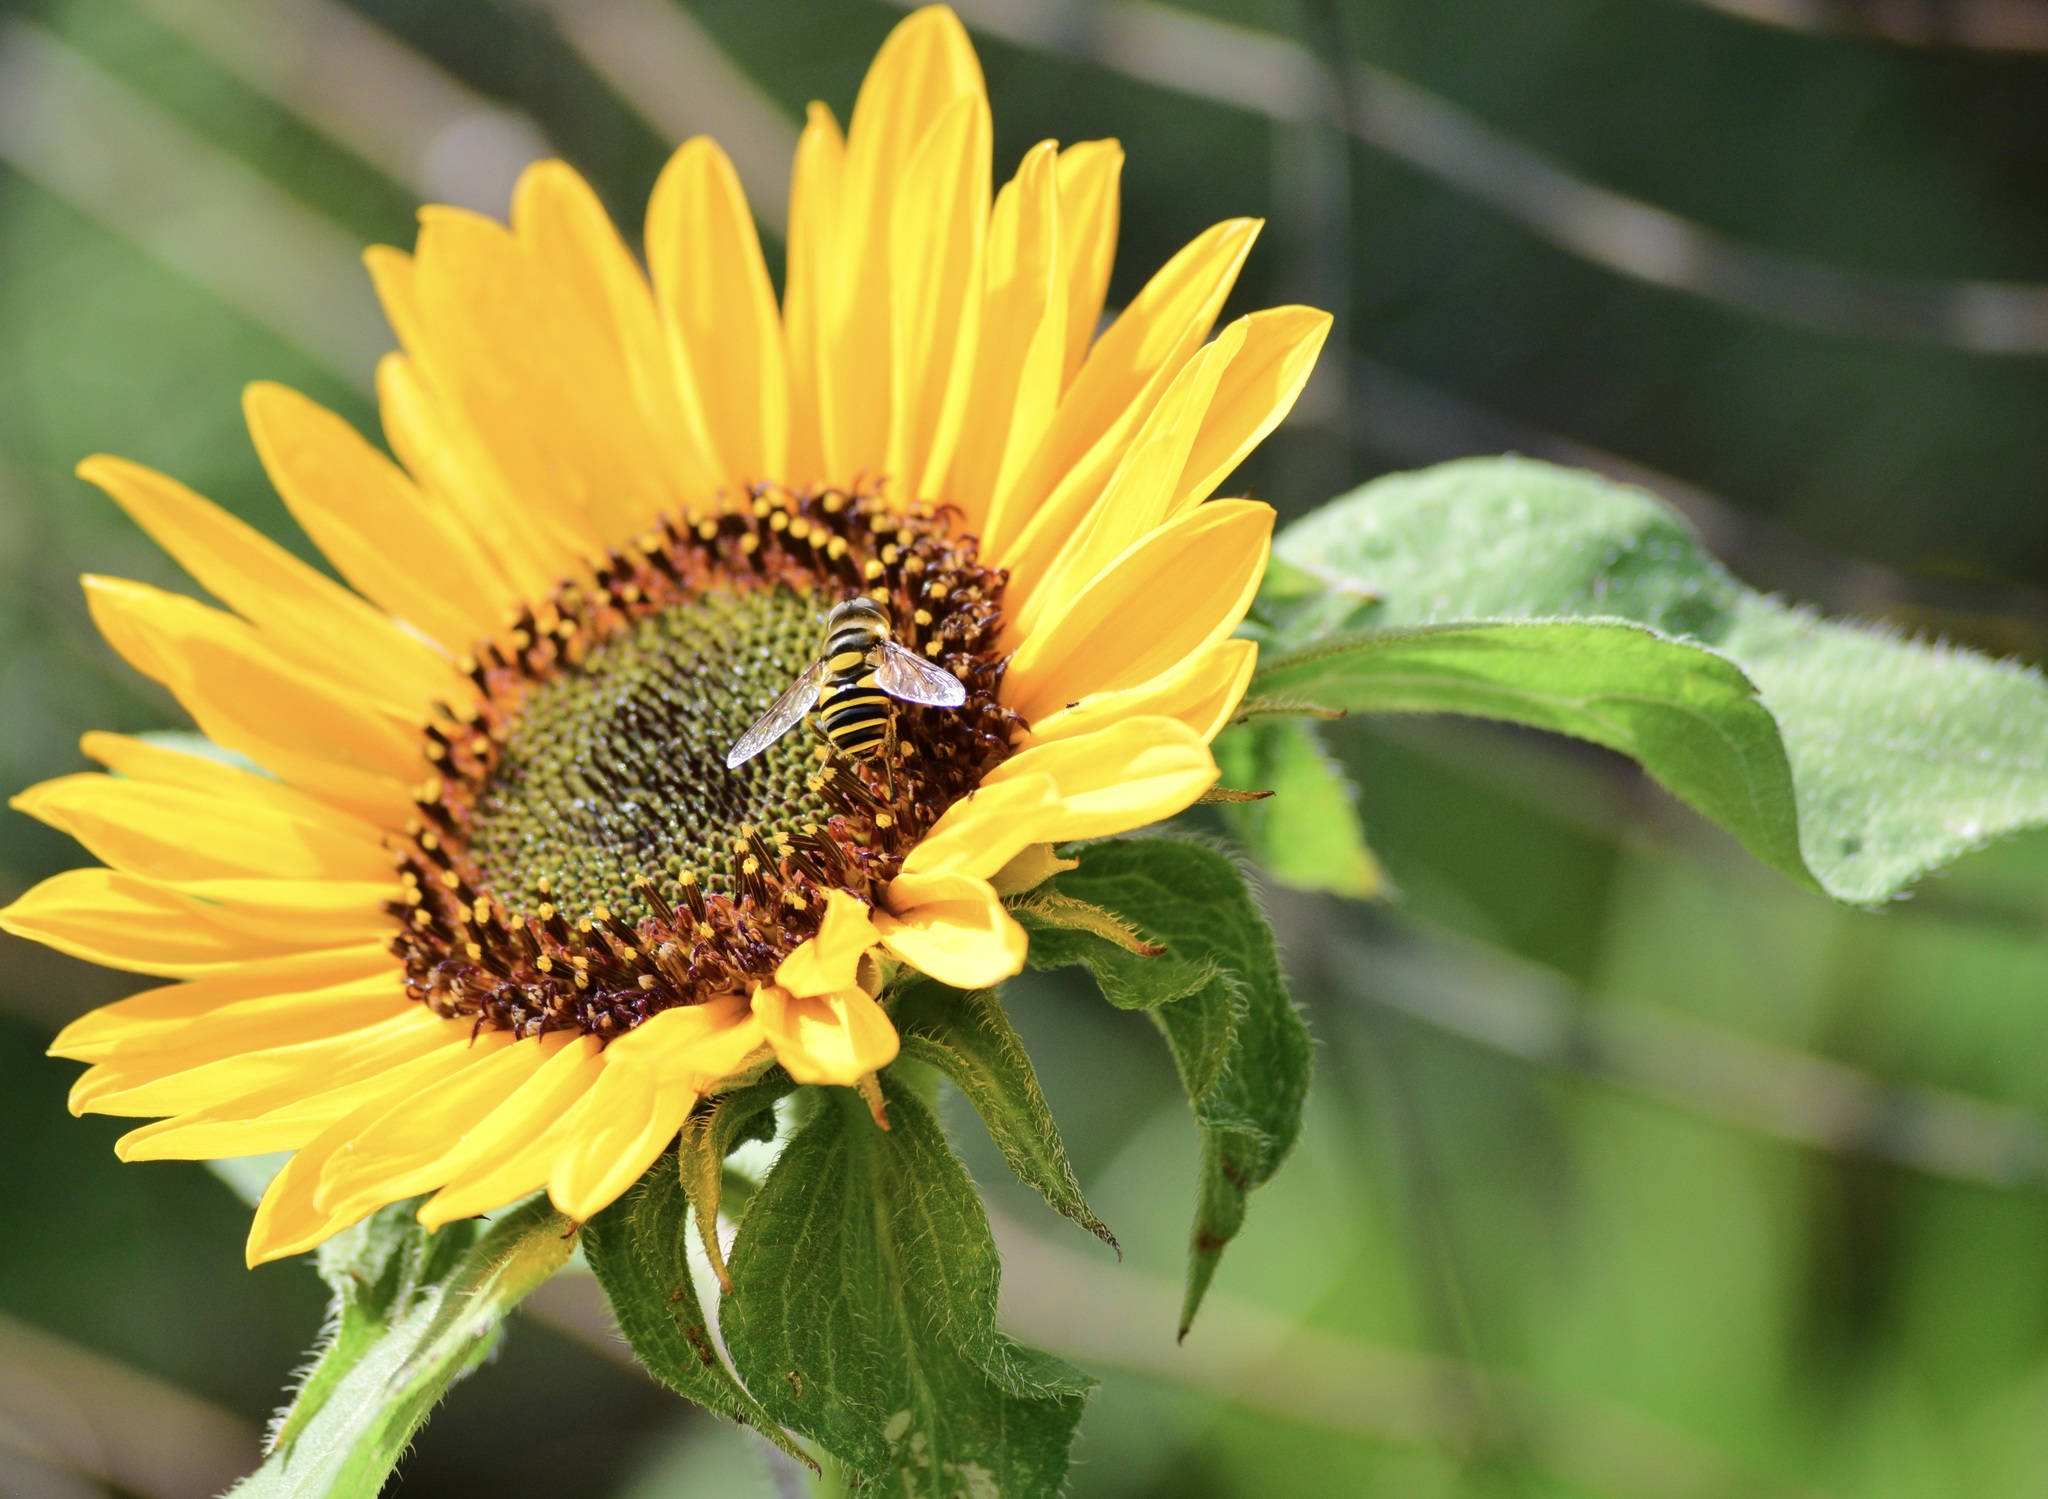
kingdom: Animalia
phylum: Arthropoda
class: Insecta
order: Diptera
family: Syrphidae
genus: Eristalis
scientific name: Eristalis transversa
